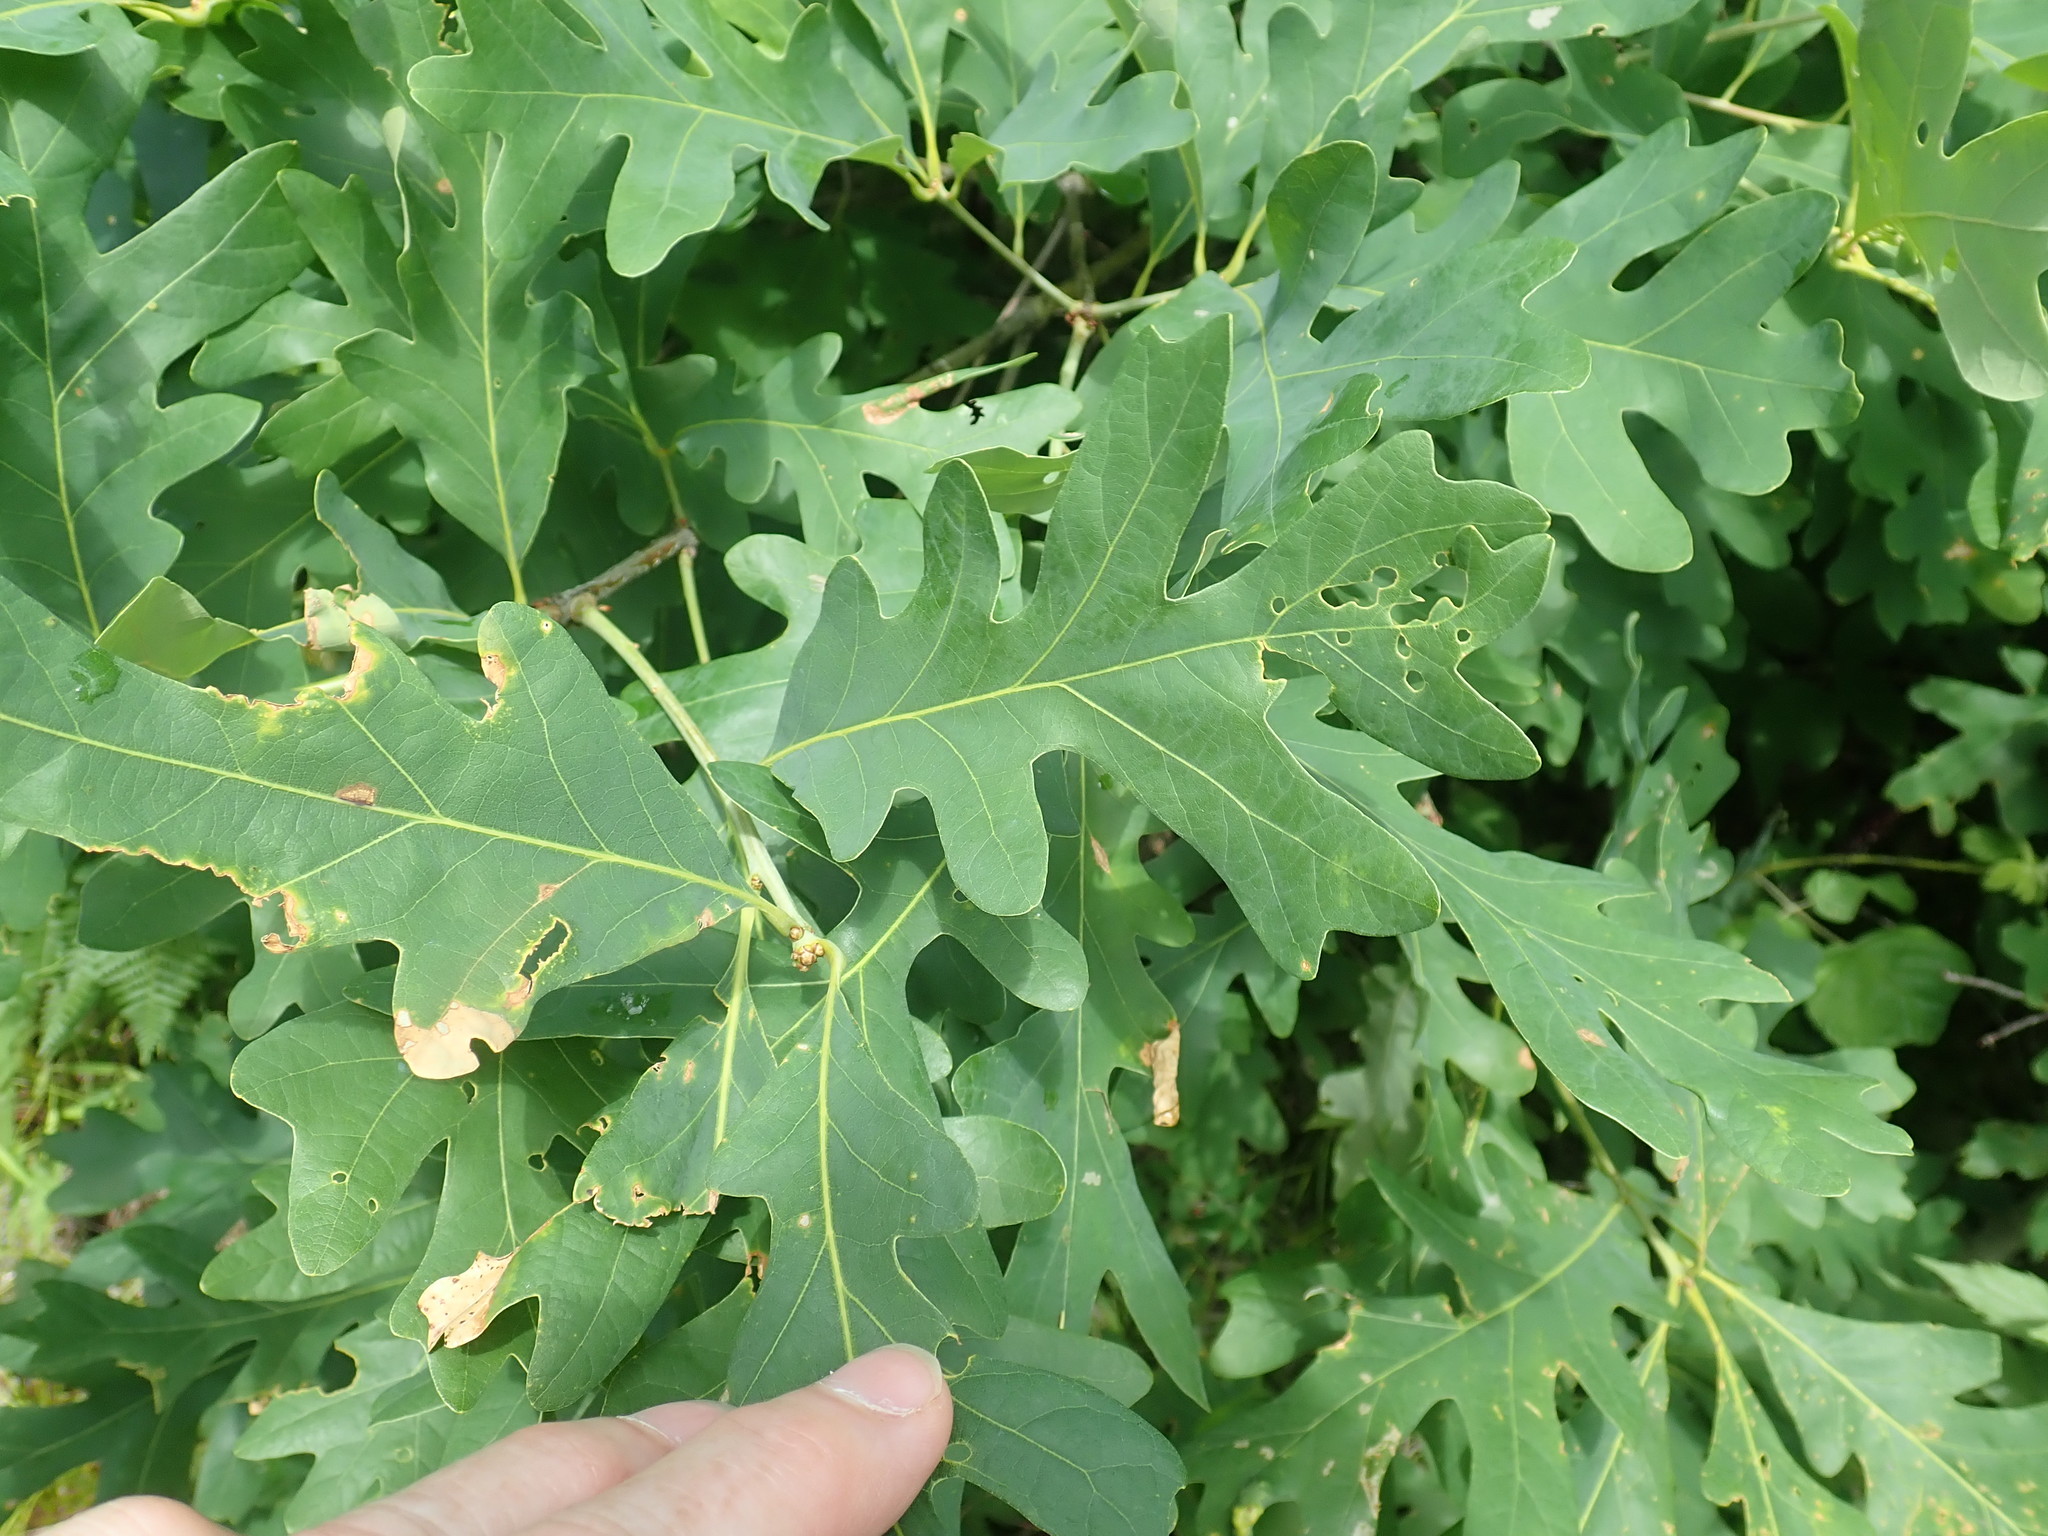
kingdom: Plantae
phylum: Tracheophyta
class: Magnoliopsida
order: Fagales
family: Fagaceae
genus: Quercus
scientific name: Quercus alba
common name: White oak
